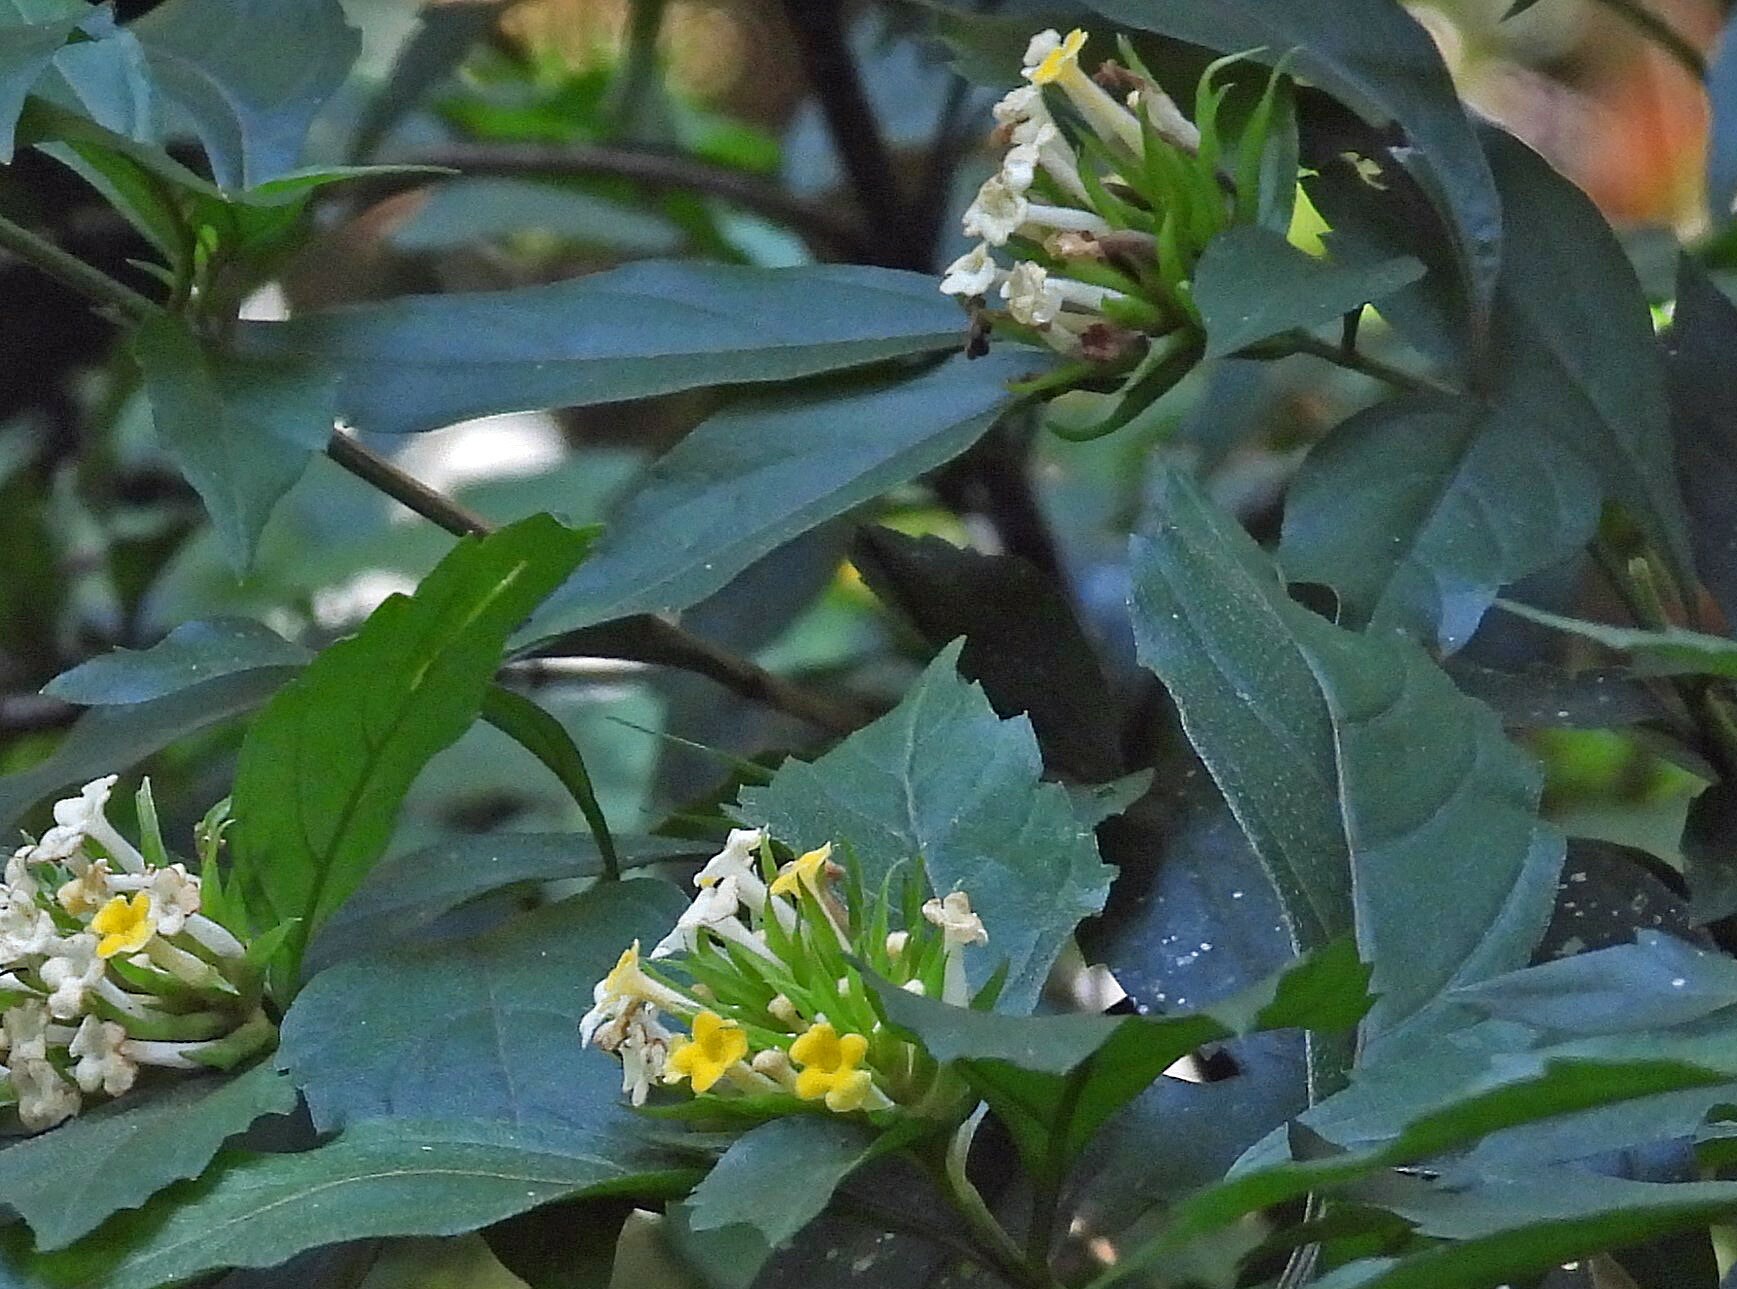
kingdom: Plantae
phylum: Tracheophyta
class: Magnoliopsida
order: Lamiales
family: Verbenaceae
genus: Lippia
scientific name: Lippia brasiliensis
